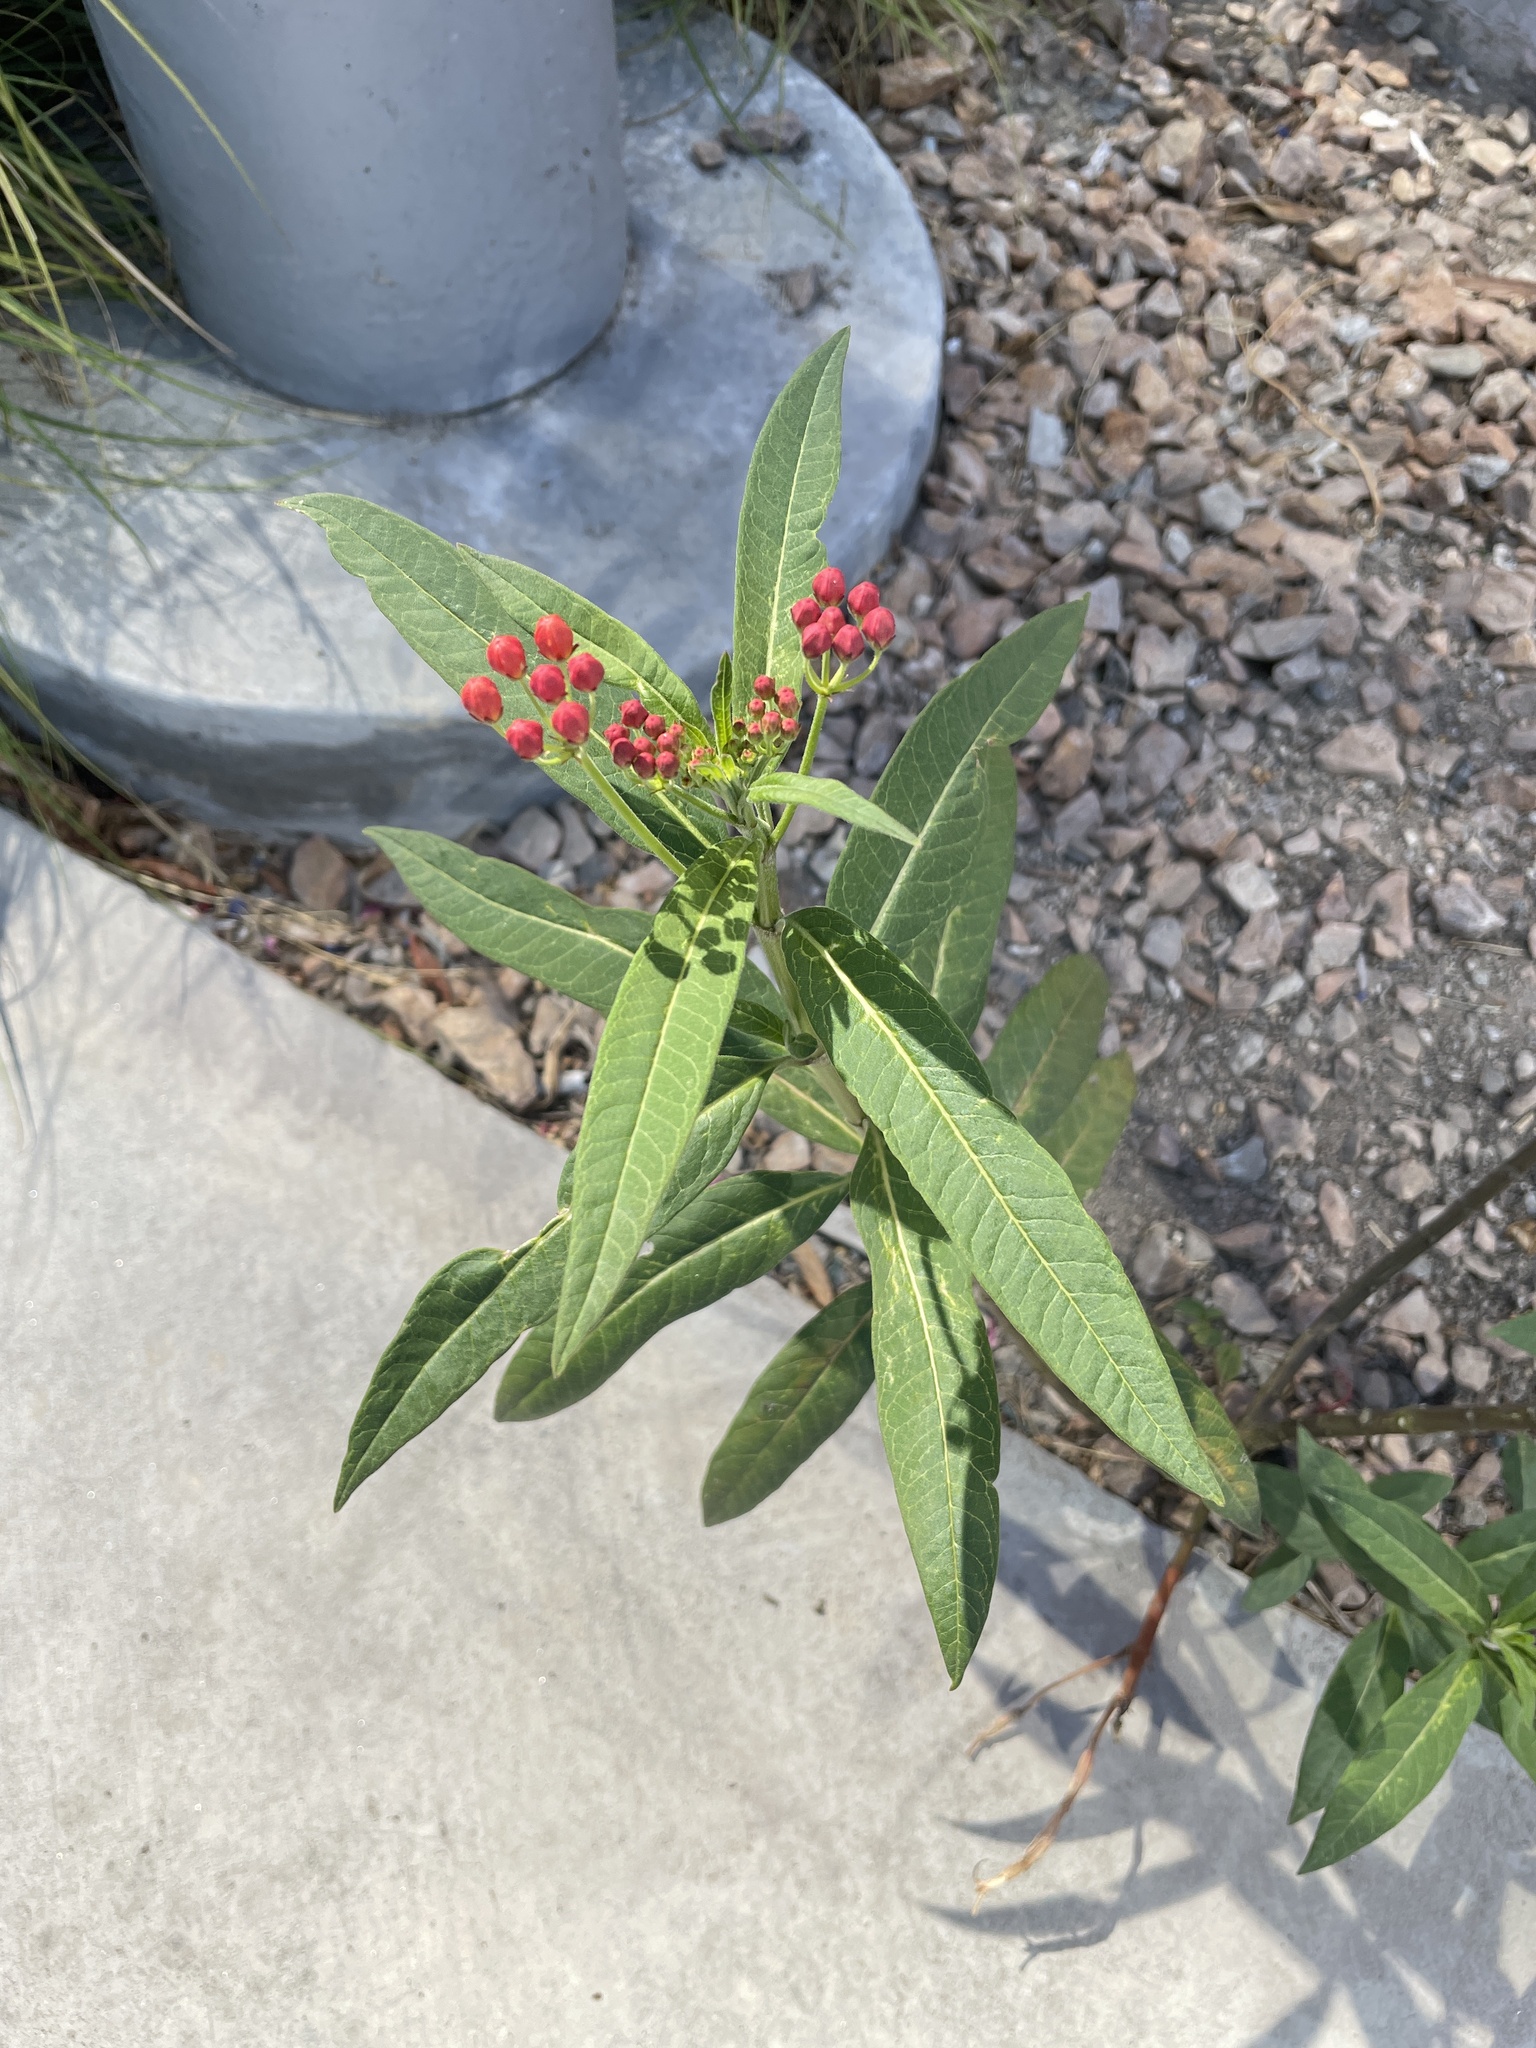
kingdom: Plantae
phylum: Tracheophyta
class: Magnoliopsida
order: Gentianales
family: Apocynaceae
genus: Asclepias
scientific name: Asclepias curassavica
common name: Bloodflower
